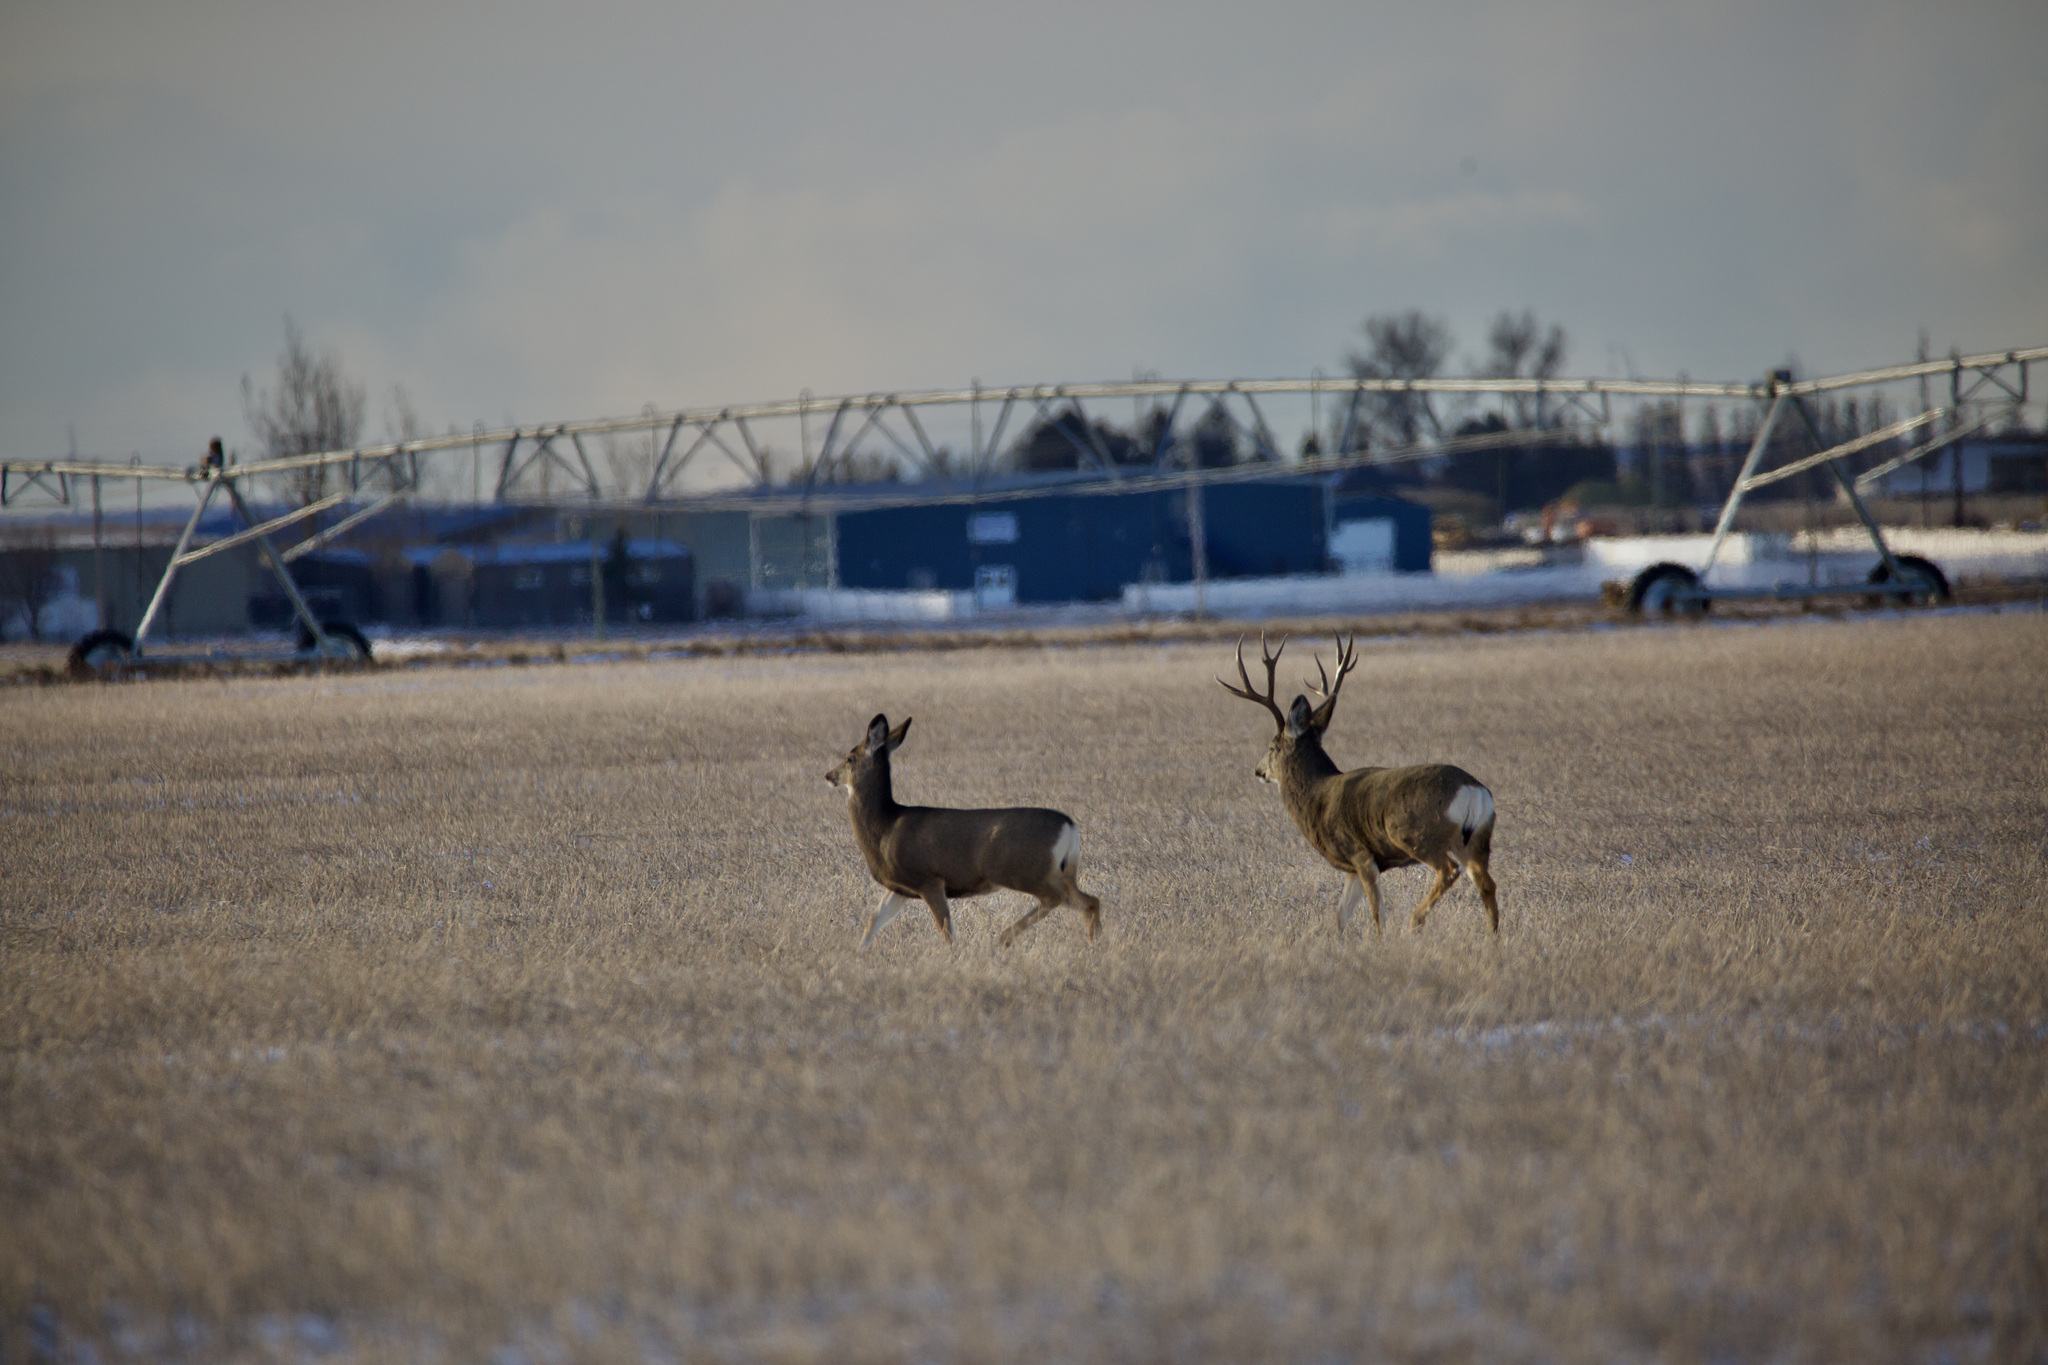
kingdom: Animalia
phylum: Chordata
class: Mammalia
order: Artiodactyla
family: Cervidae
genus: Odocoileus
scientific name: Odocoileus hemionus
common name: Mule deer
